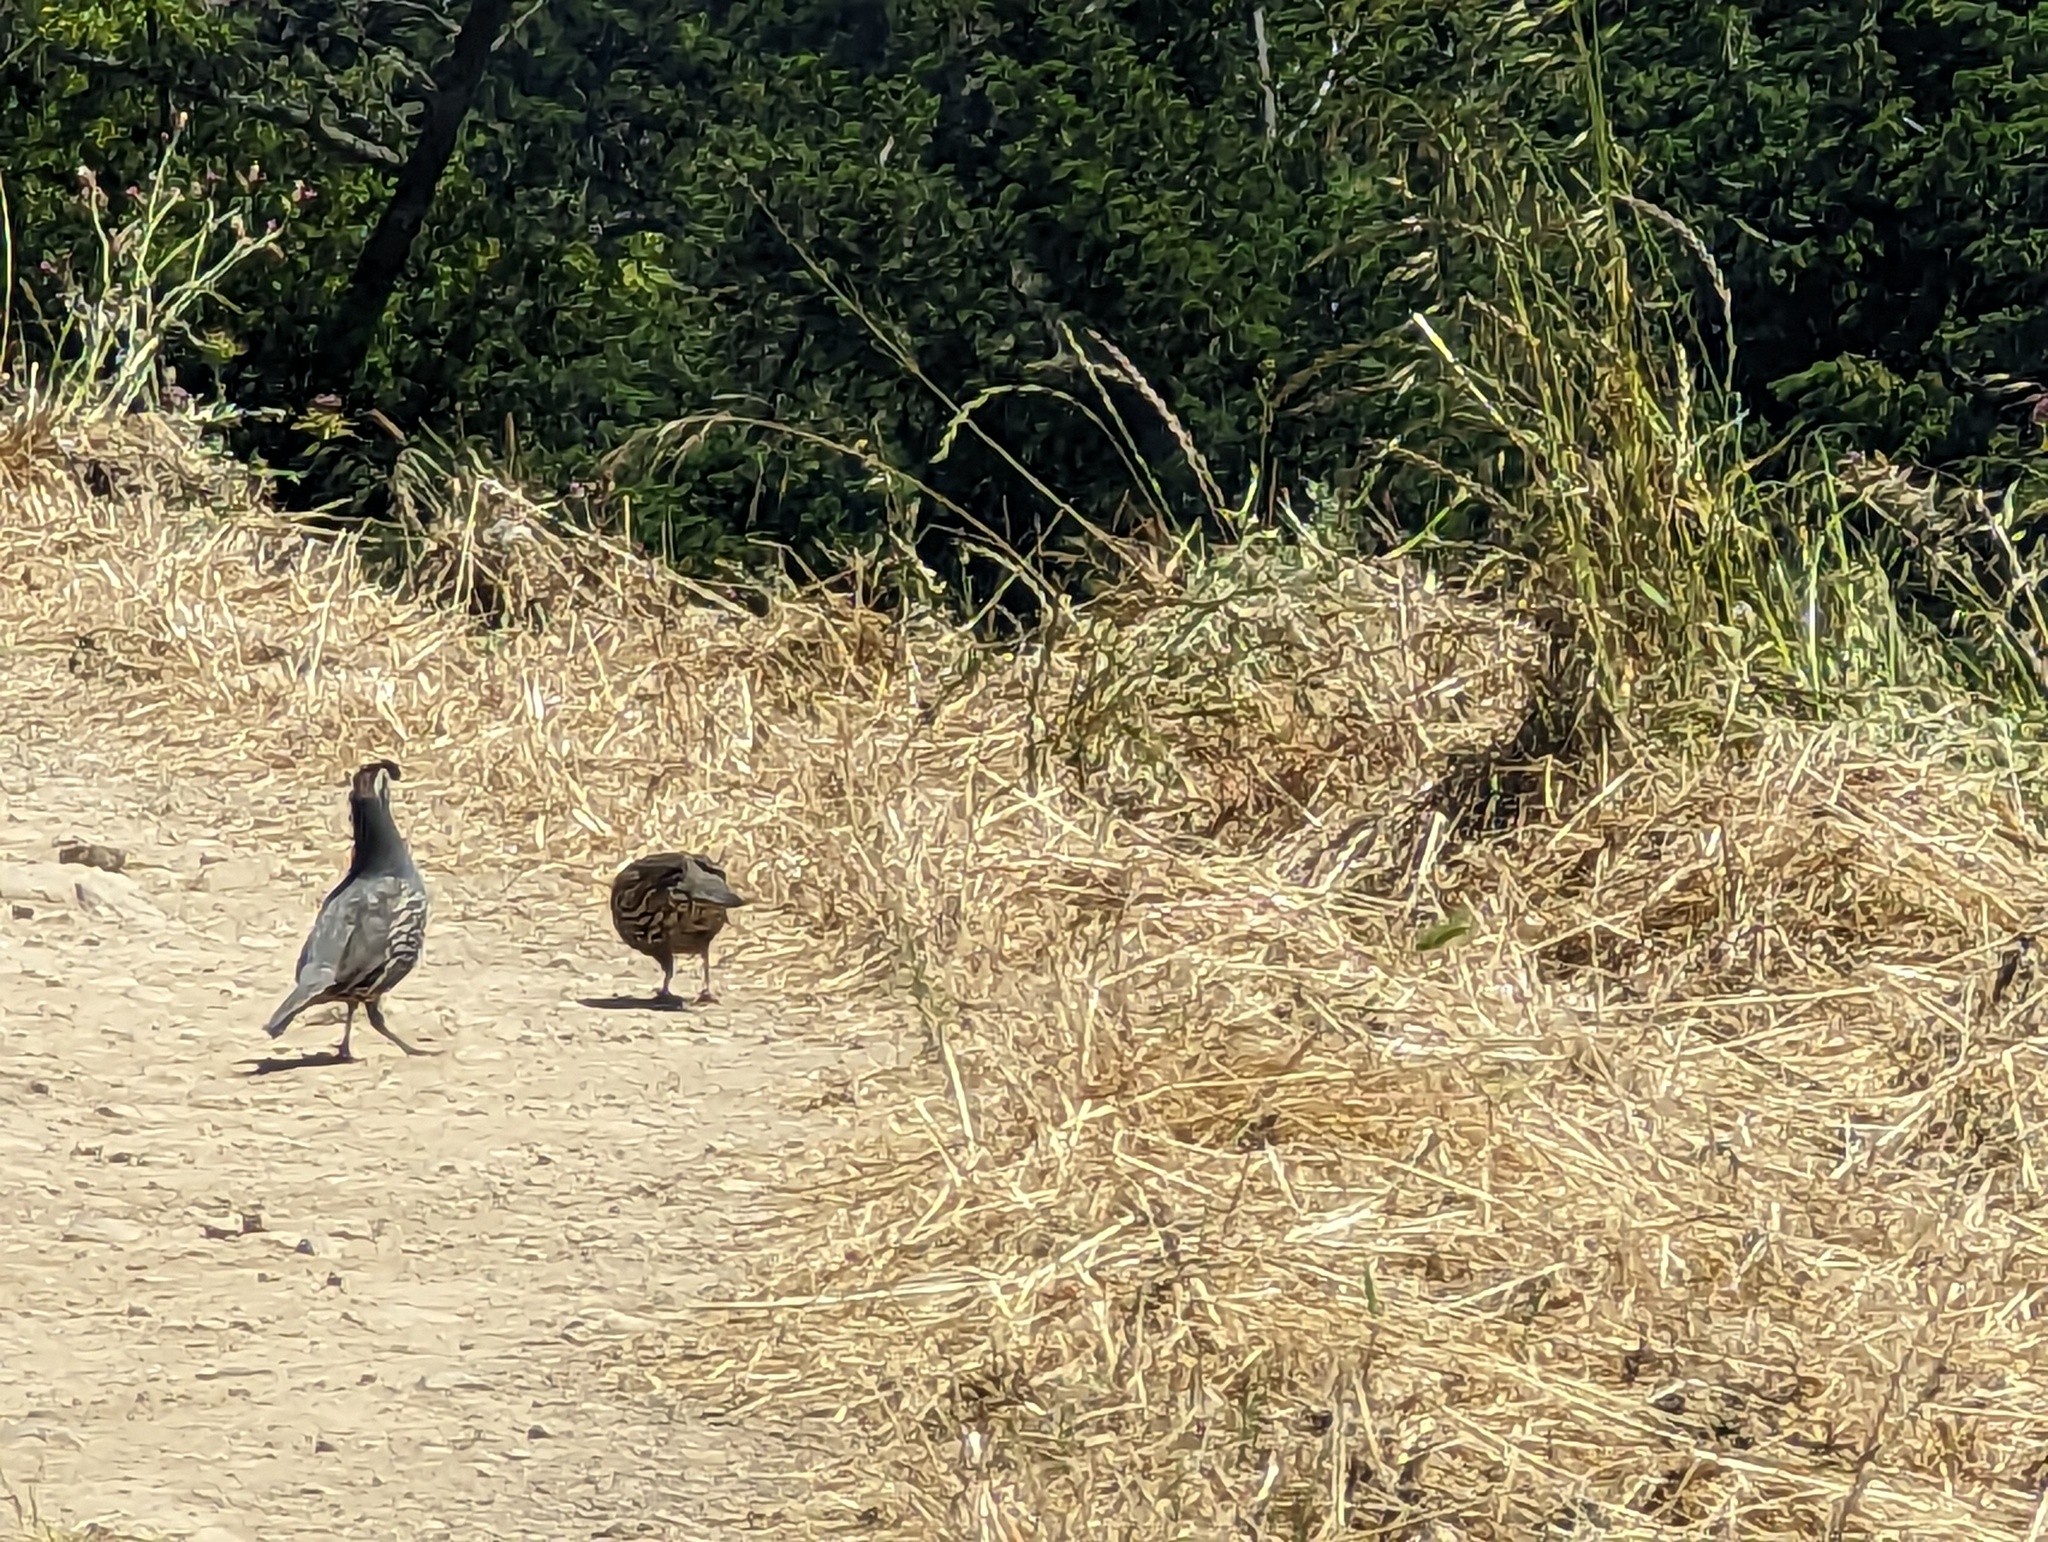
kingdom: Animalia
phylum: Chordata
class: Aves
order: Galliformes
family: Odontophoridae
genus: Callipepla
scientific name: Callipepla californica
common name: California quail
